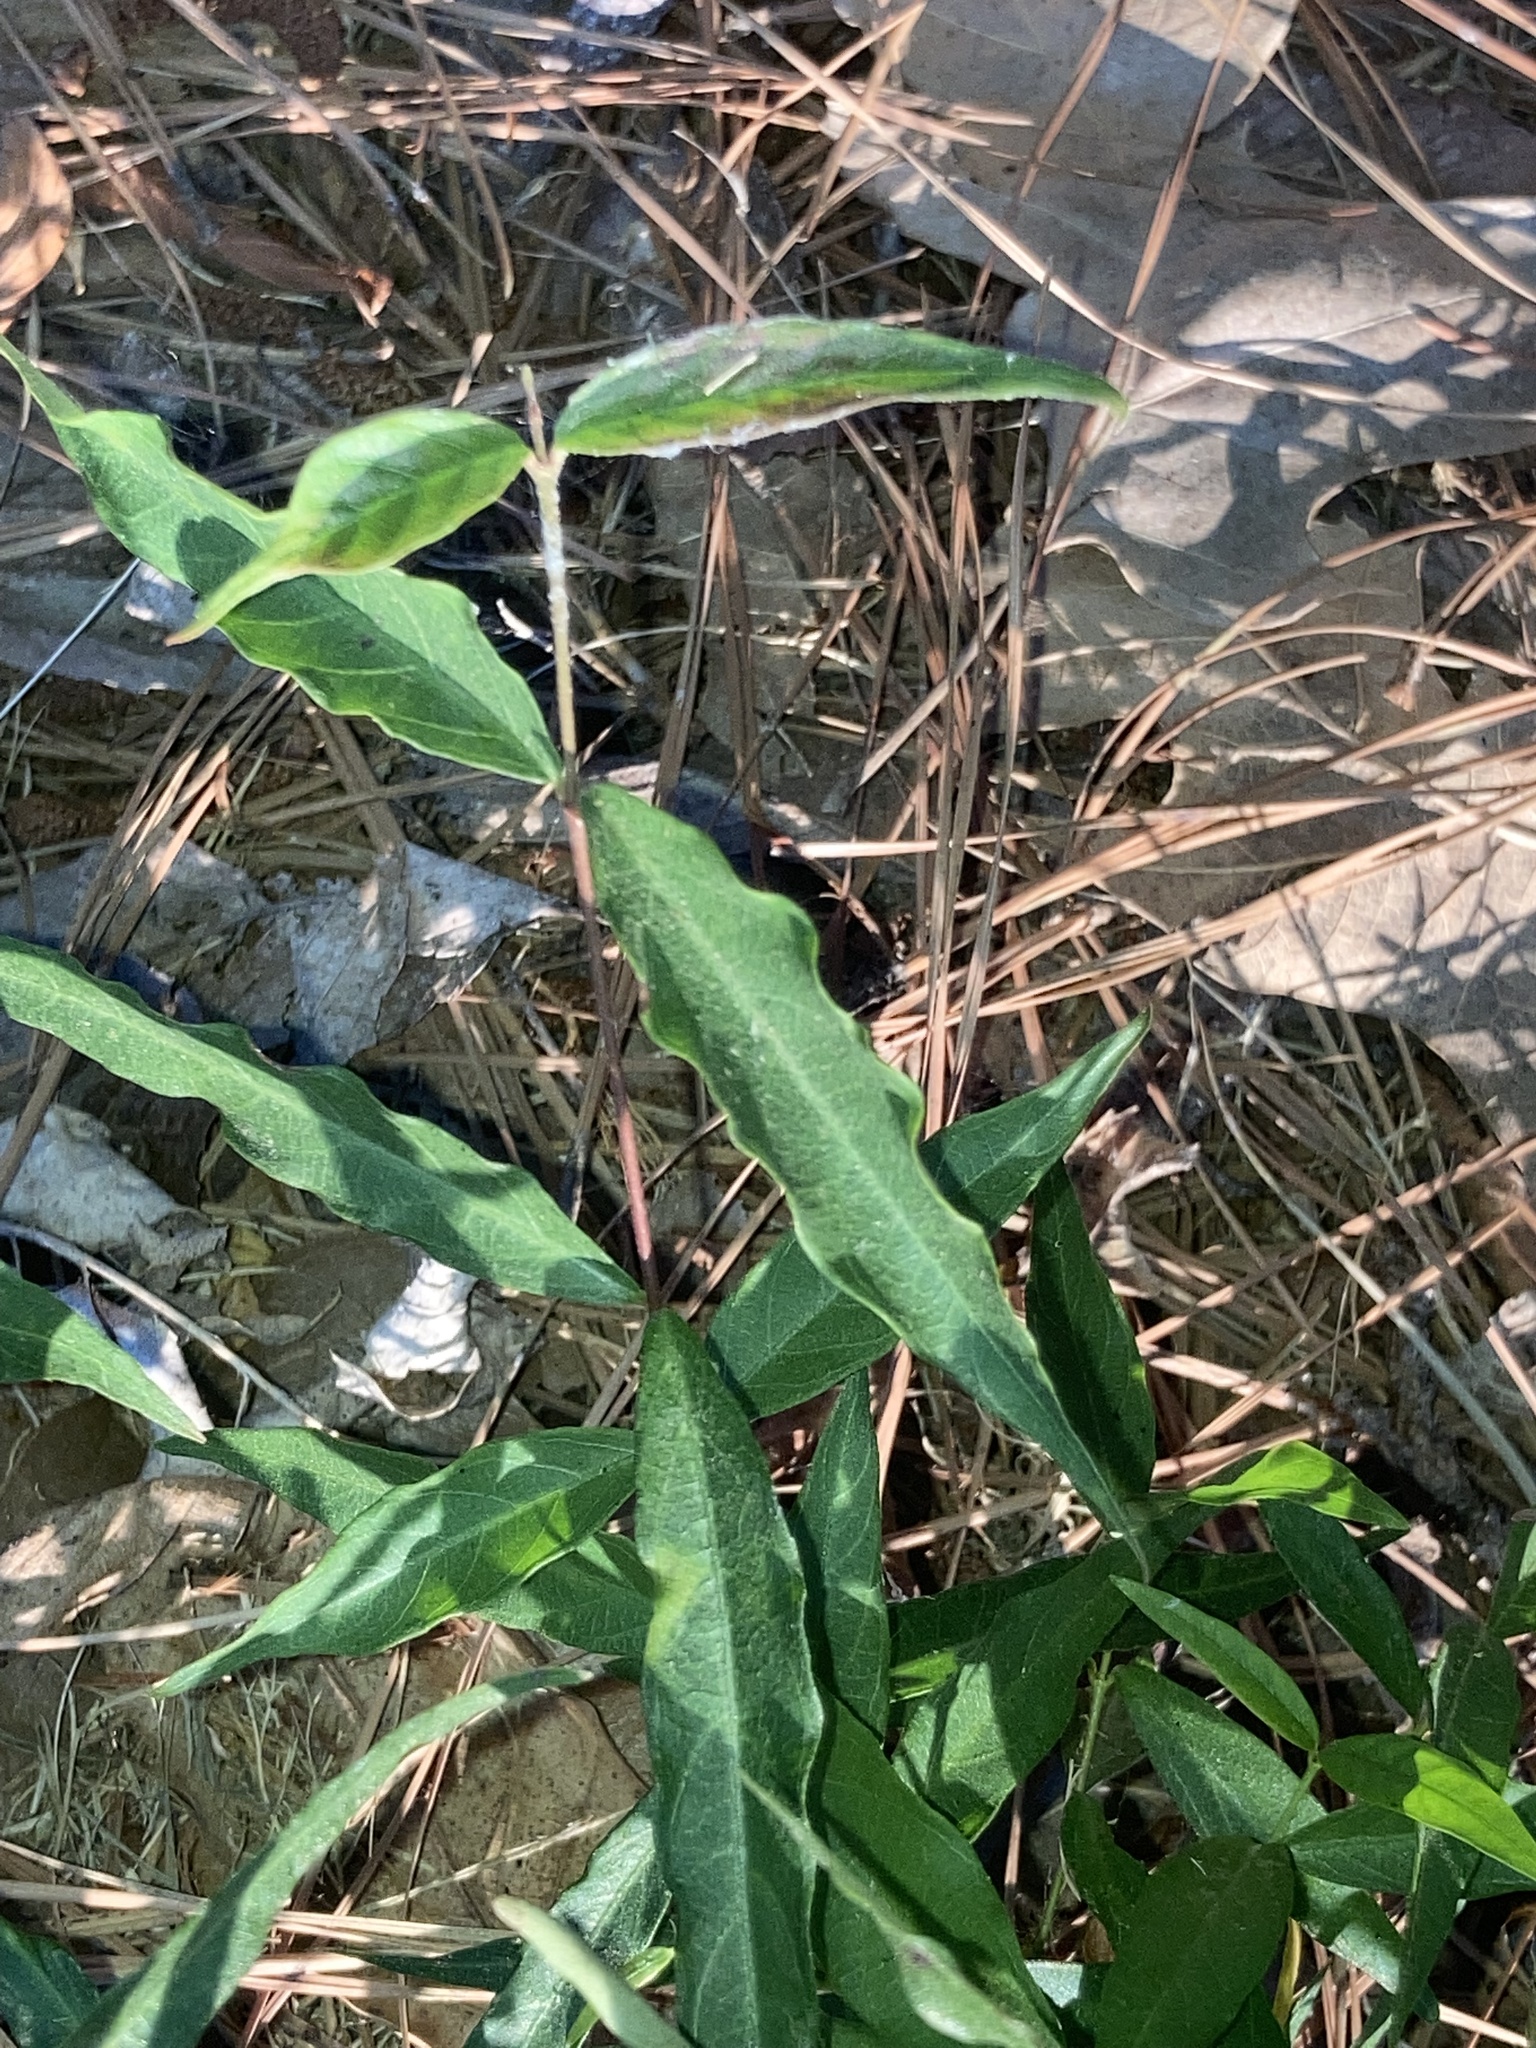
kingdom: Plantae
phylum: Tracheophyta
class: Magnoliopsida
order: Gentianales
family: Apocynaceae
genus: Thyrsanthella
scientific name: Thyrsanthella difformis
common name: Climbing dogbane
